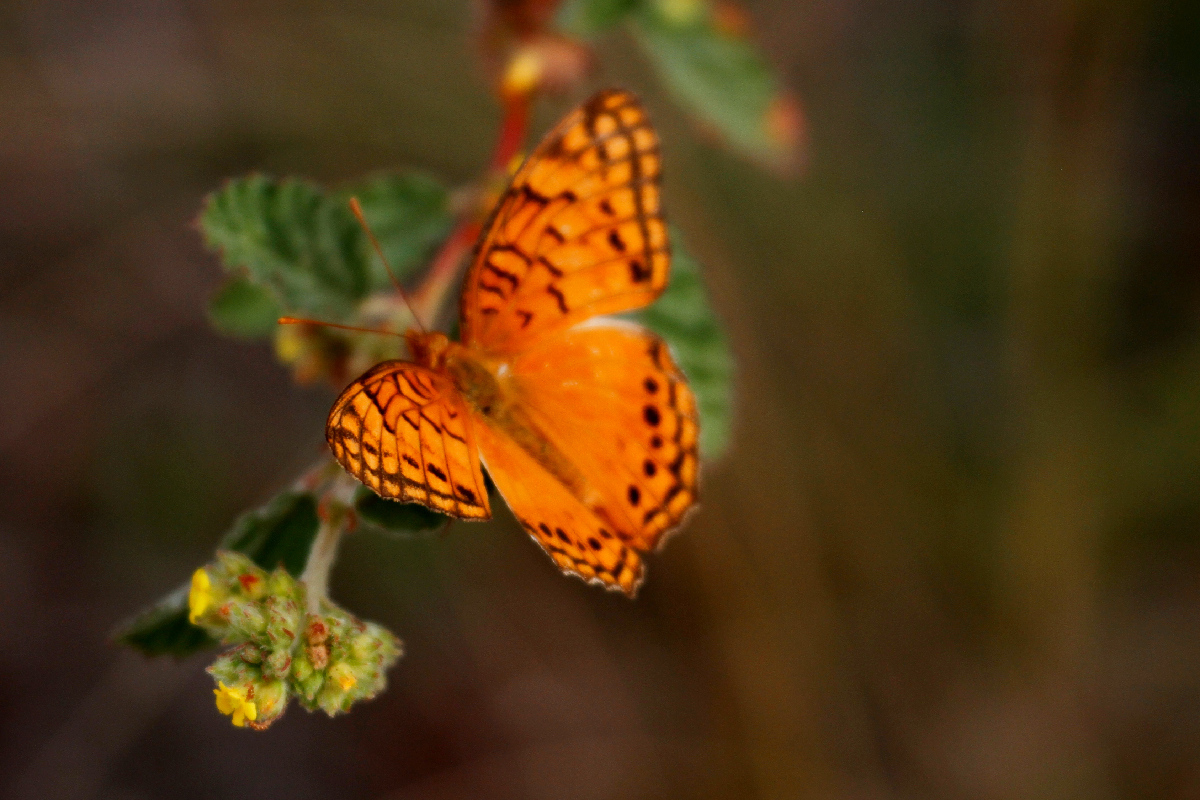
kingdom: Animalia
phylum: Arthropoda
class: Insecta
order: Lepidoptera
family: Nymphalidae
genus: Euptoieta
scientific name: Euptoieta hegesia
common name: Mexican fritillary
